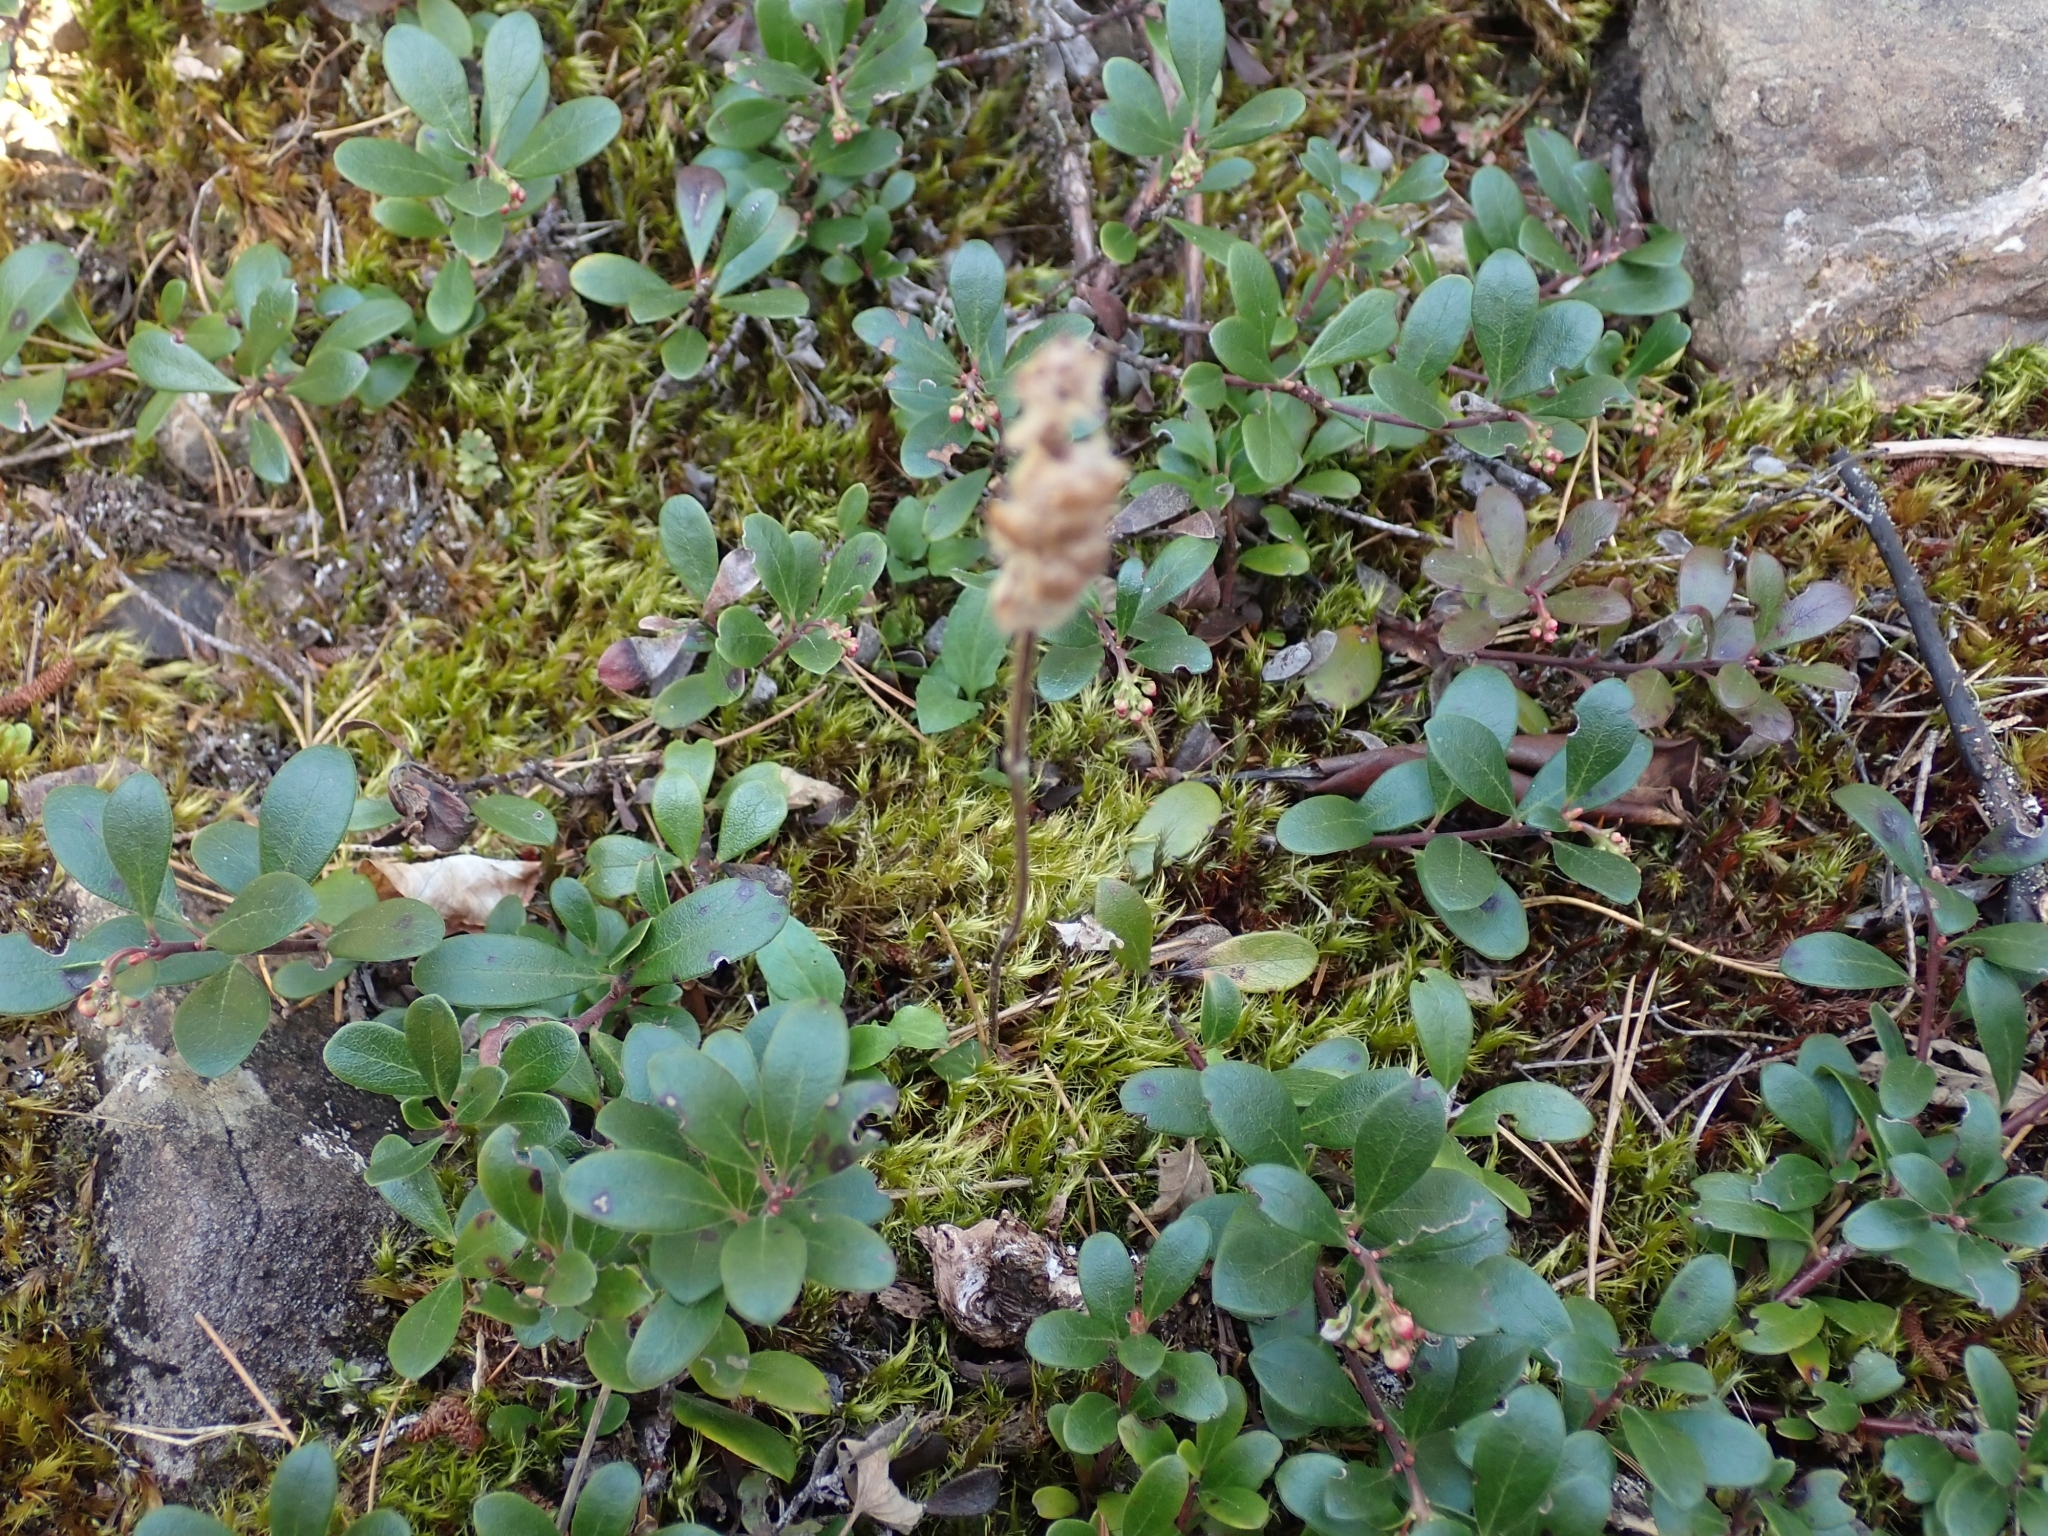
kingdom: Plantae
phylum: Tracheophyta
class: Magnoliopsida
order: Lamiales
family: Lamiaceae
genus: Prunella
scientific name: Prunella vulgaris
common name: Heal-all
